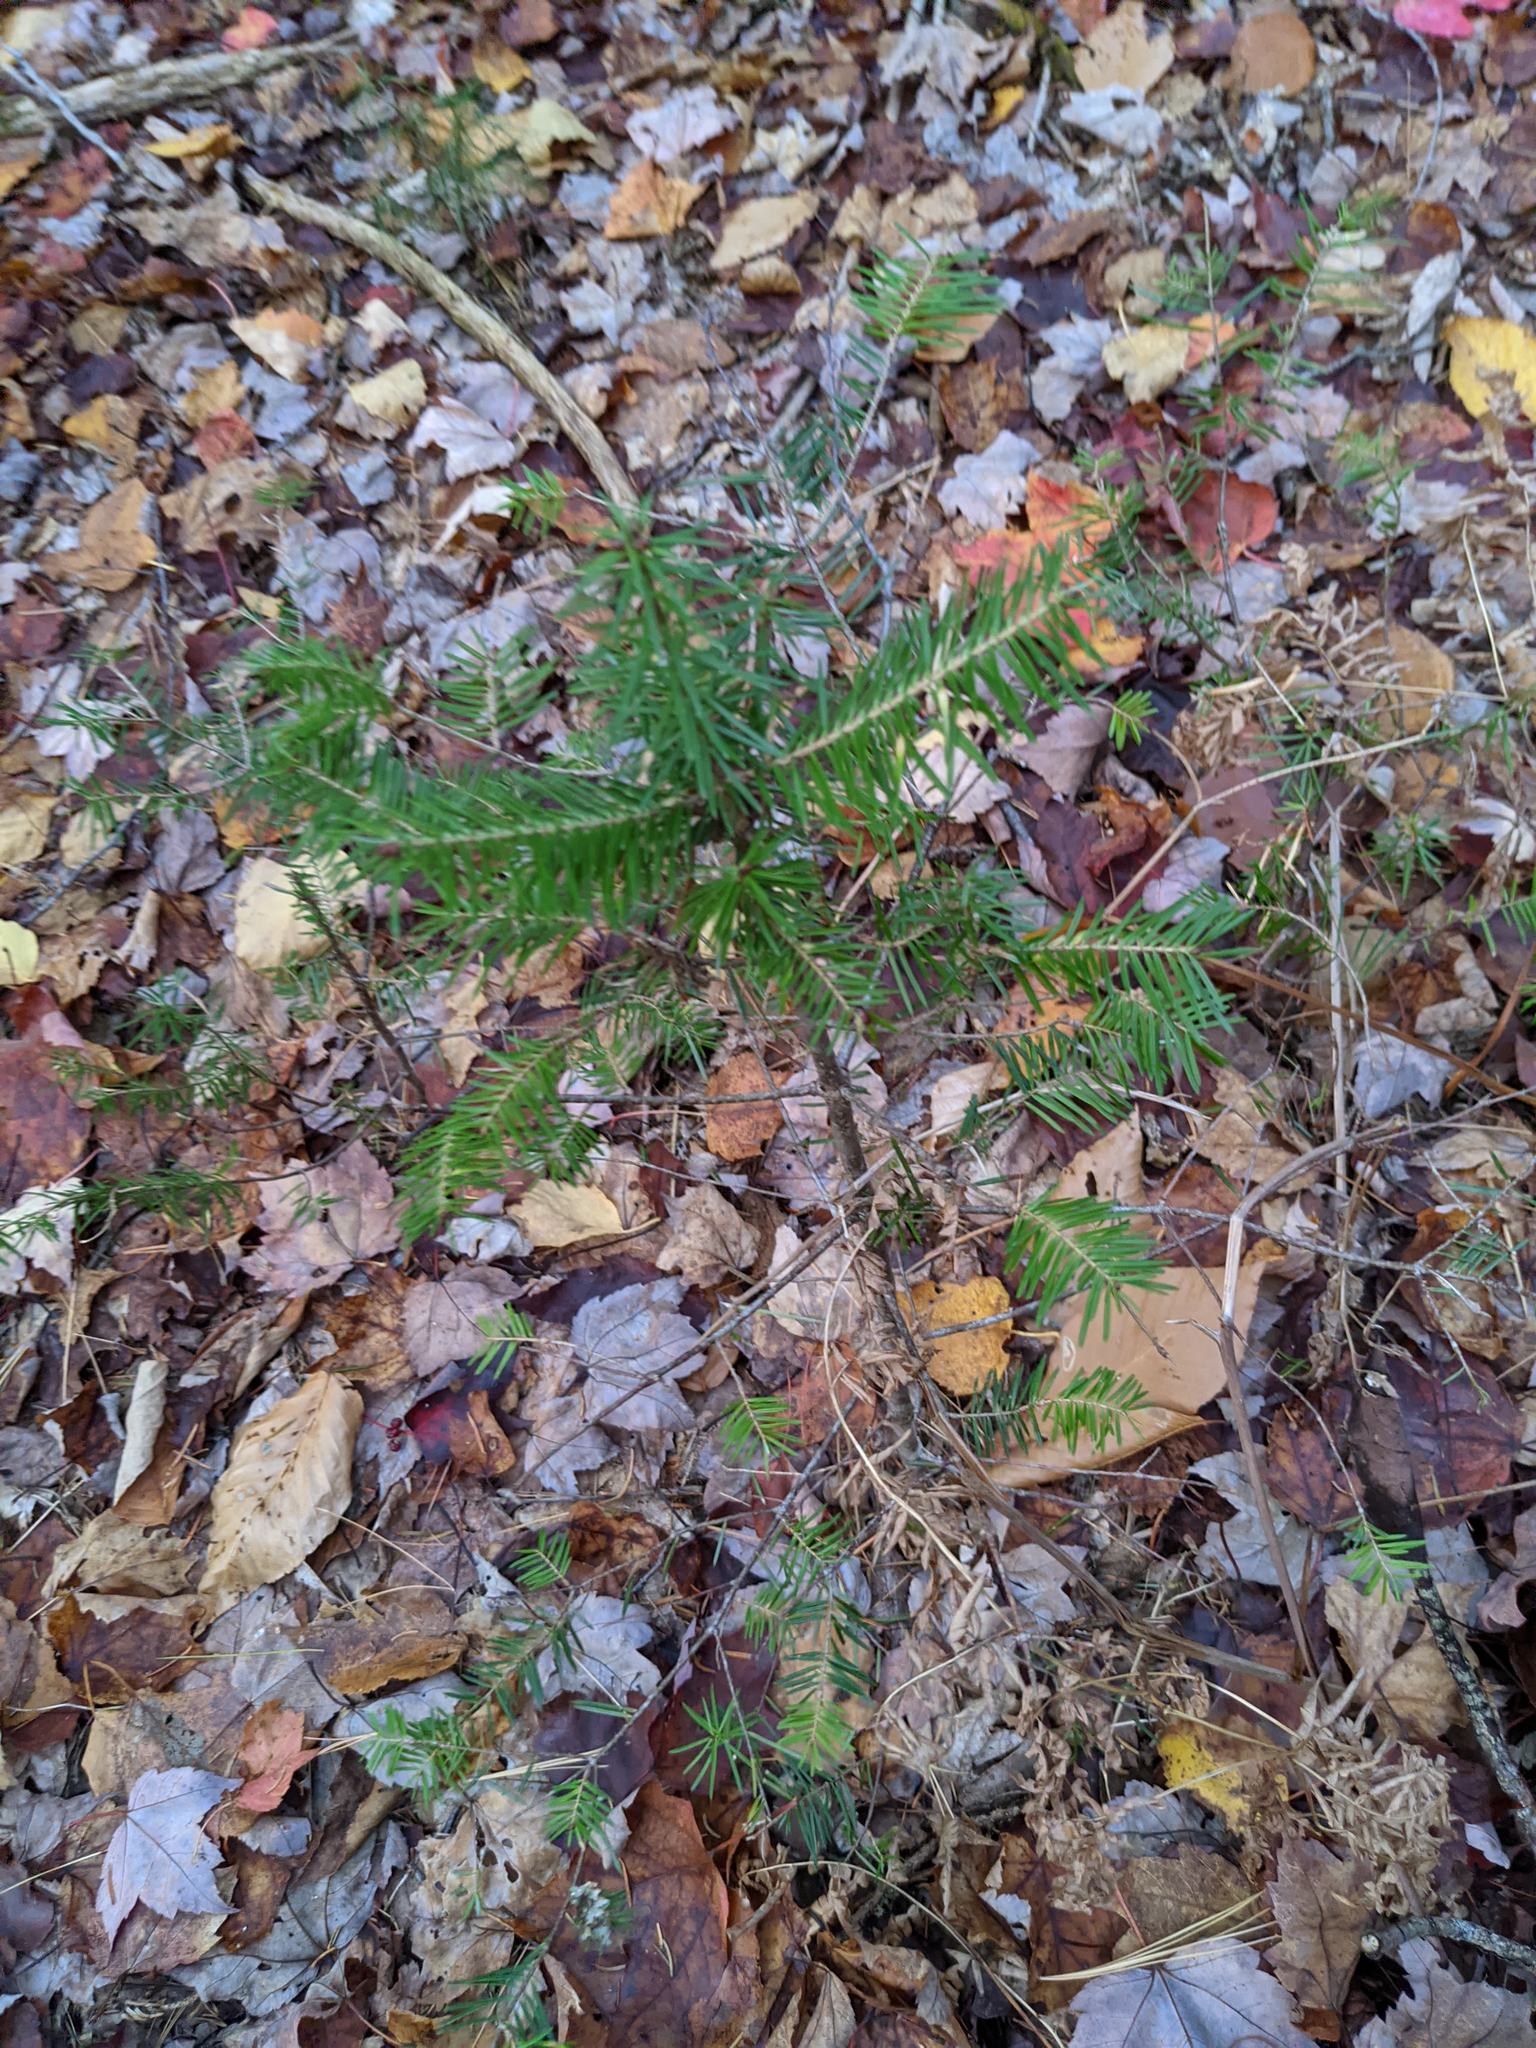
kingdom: Plantae
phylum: Tracheophyta
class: Pinopsida
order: Pinales
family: Pinaceae
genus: Abies
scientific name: Abies balsamea
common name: Balsam fir
